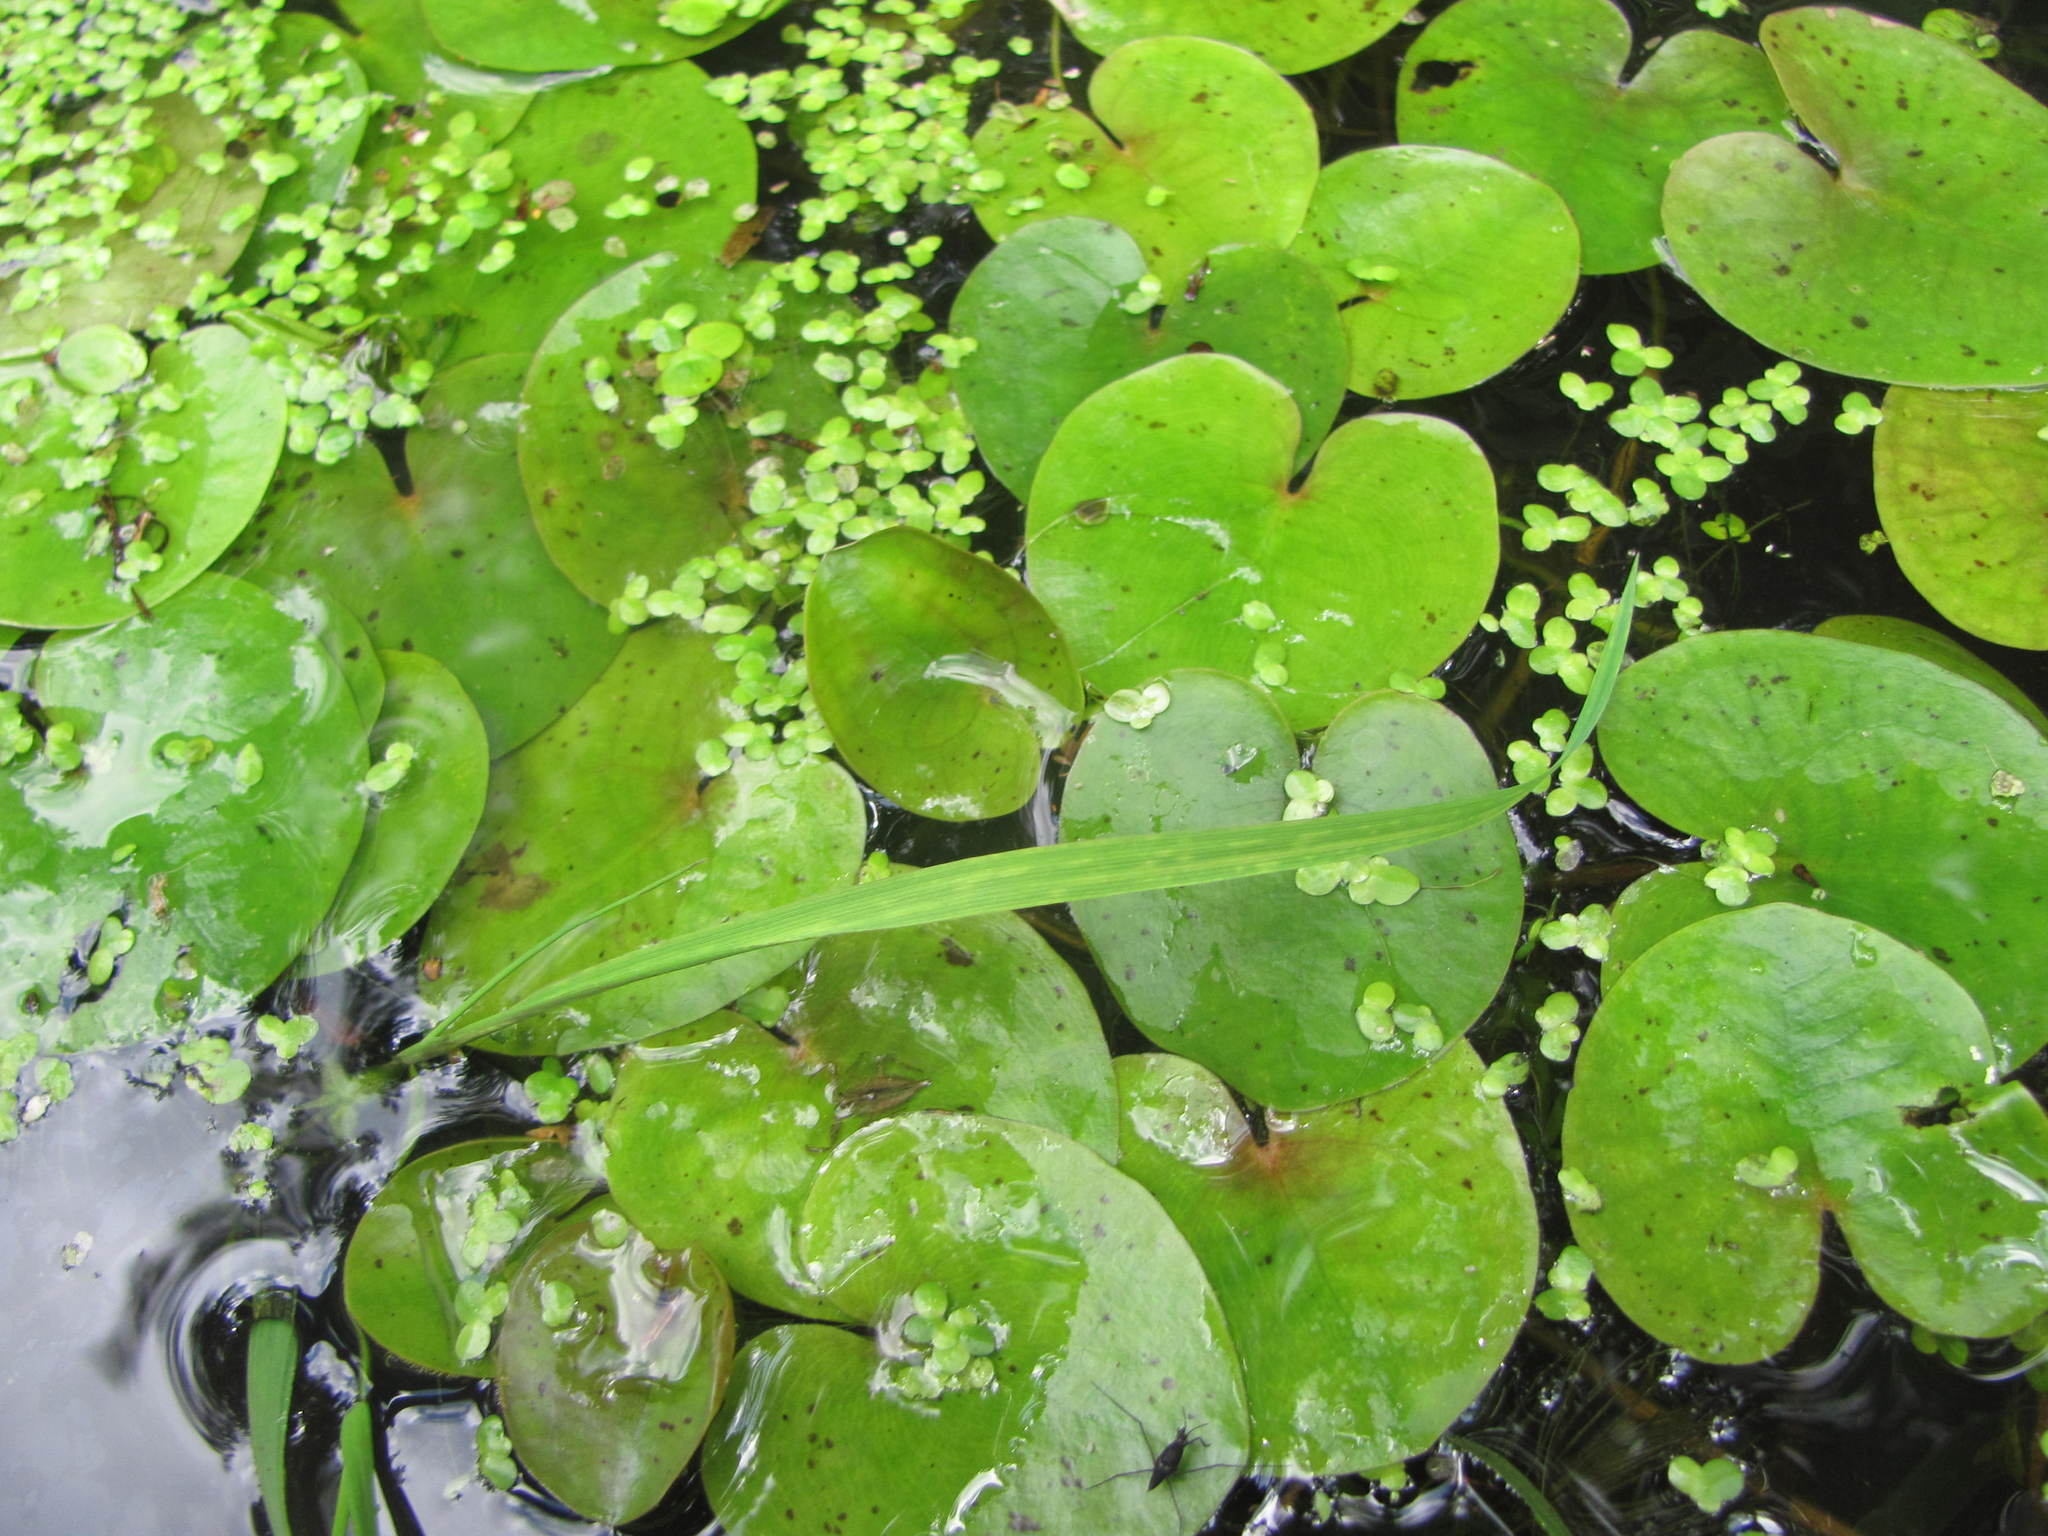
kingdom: Plantae
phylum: Tracheophyta
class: Liliopsida
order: Alismatales
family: Hydrocharitaceae
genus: Hydrocharis
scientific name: Hydrocharis morsus-ranae
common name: Frogbit
